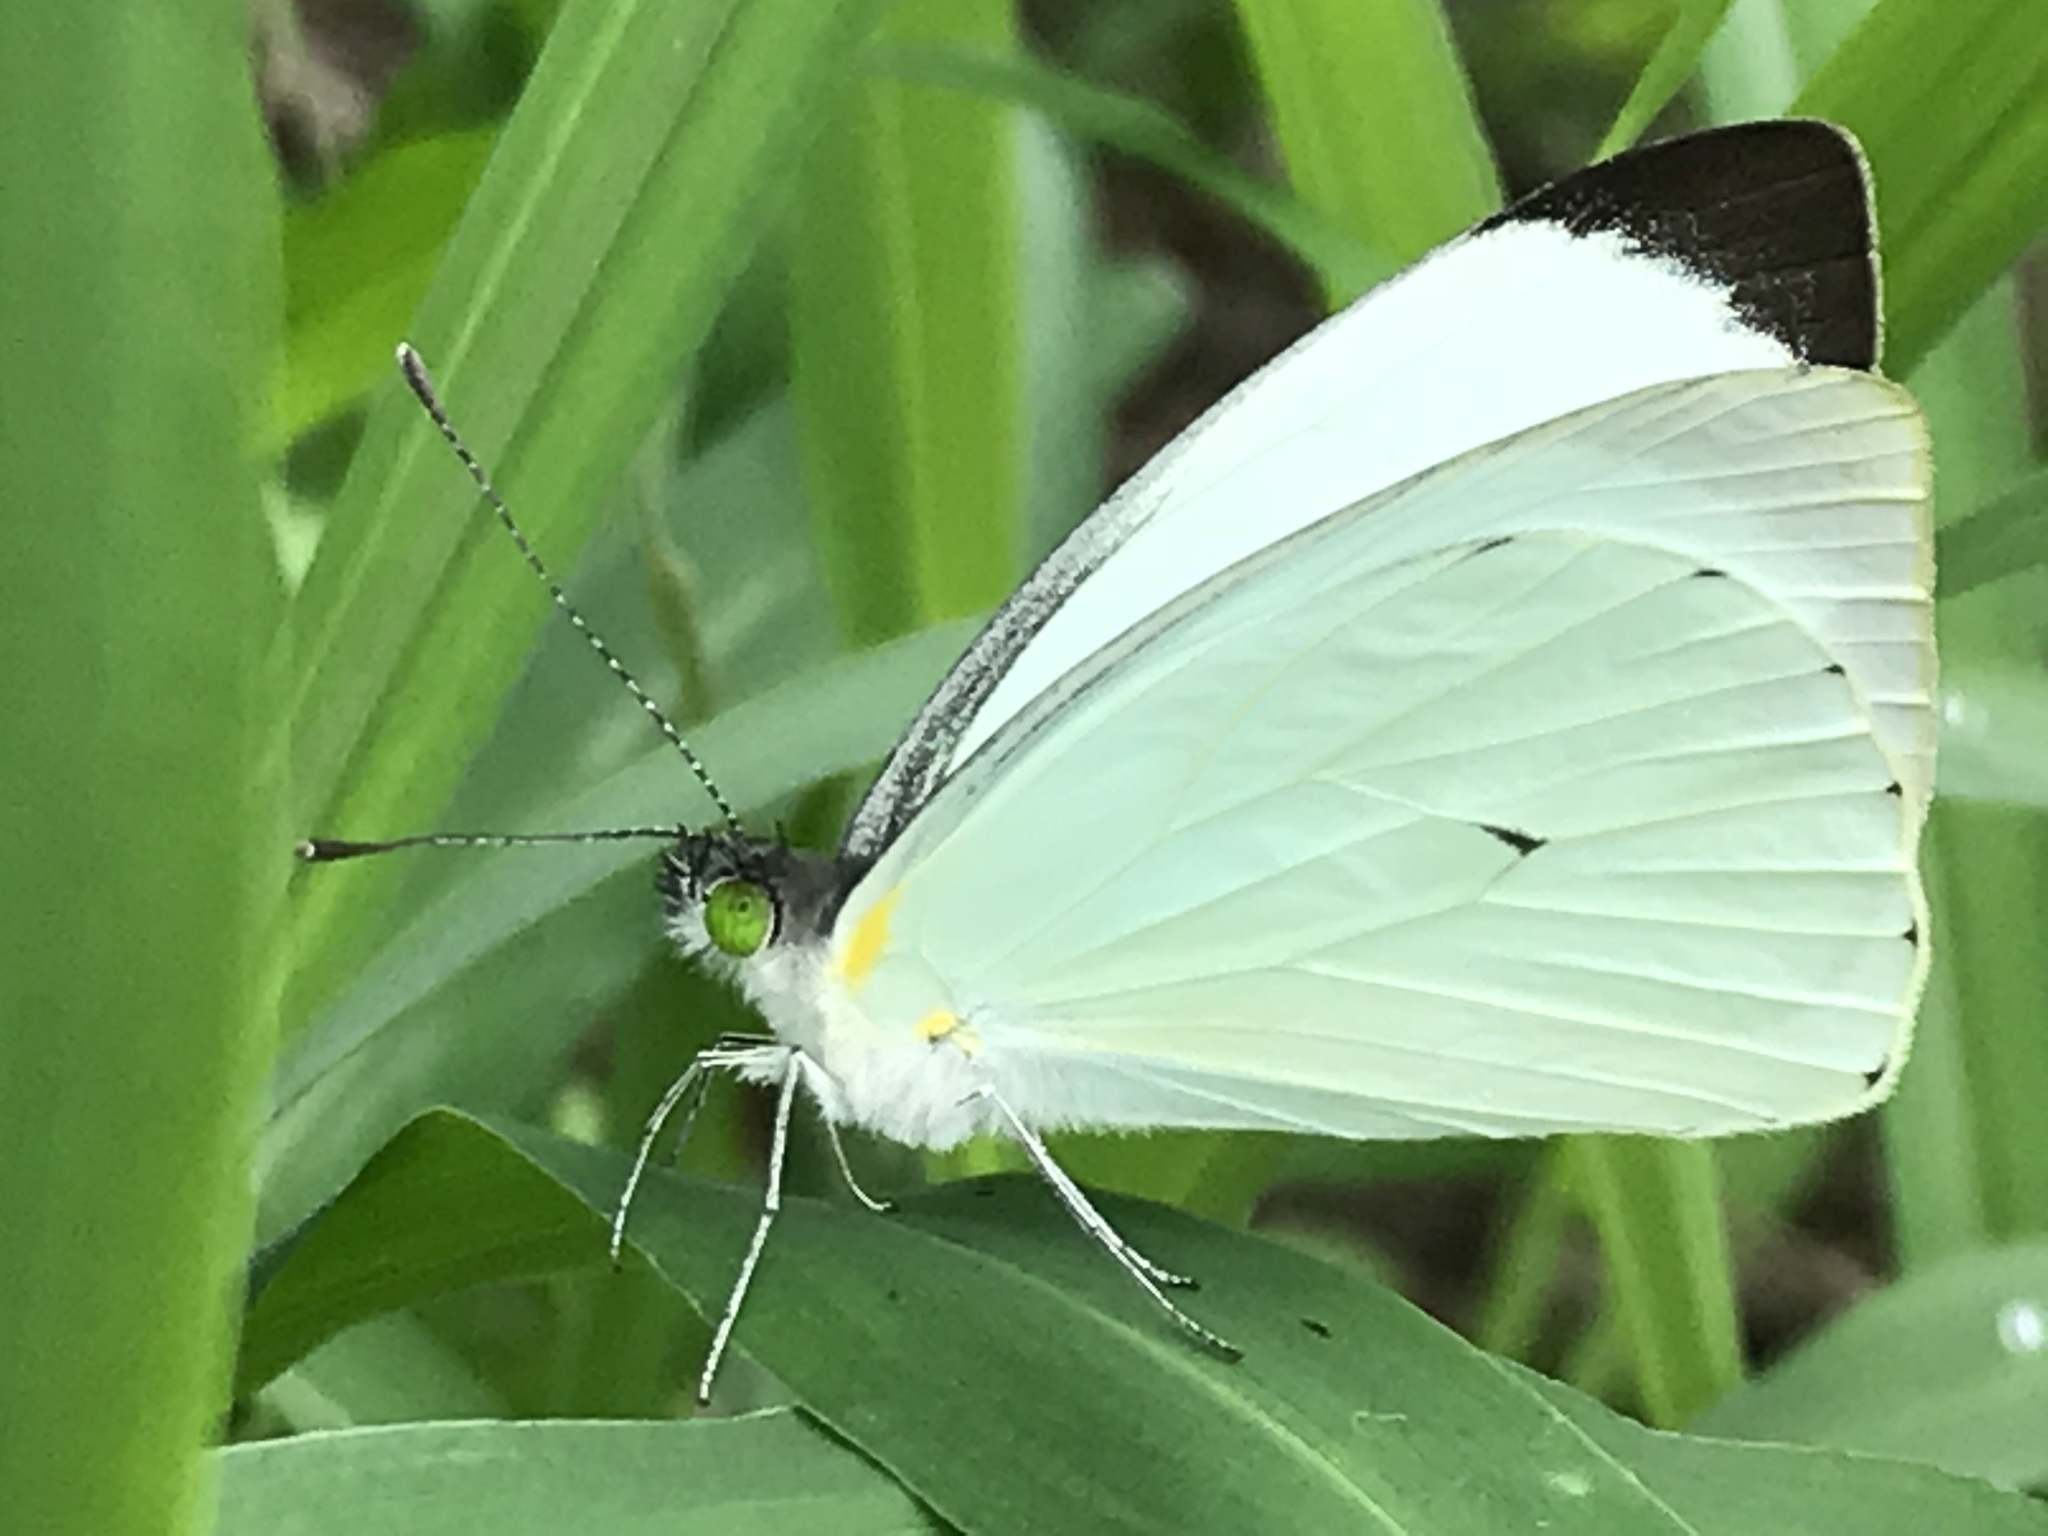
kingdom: Animalia
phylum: Arthropoda
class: Insecta
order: Lepidoptera
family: Pieridae
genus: Leptophobia
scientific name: Leptophobia aripa
